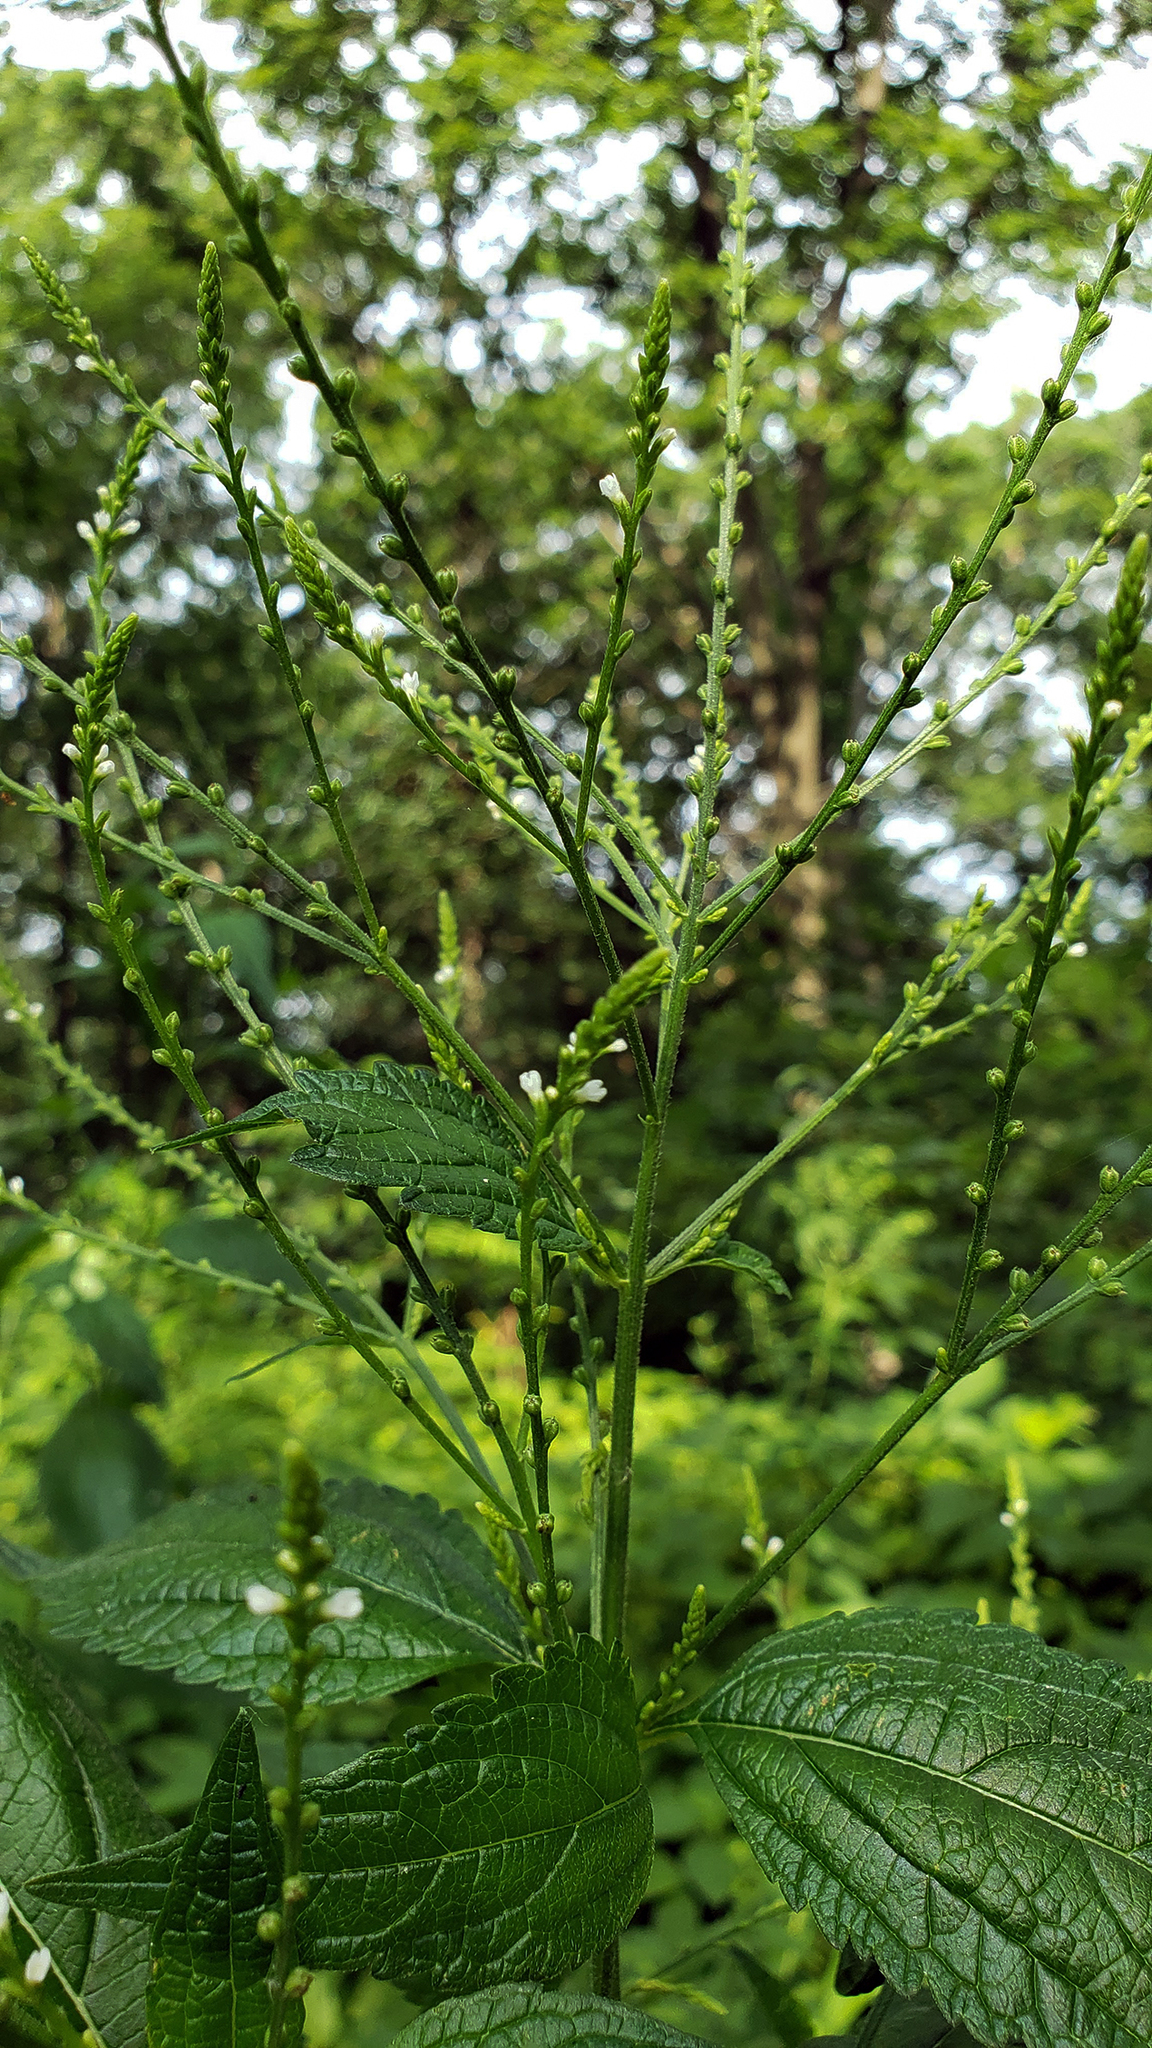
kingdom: Plantae
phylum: Tracheophyta
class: Magnoliopsida
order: Lamiales
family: Verbenaceae
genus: Verbena
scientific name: Verbena urticifolia
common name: Nettle-leaved vervain
